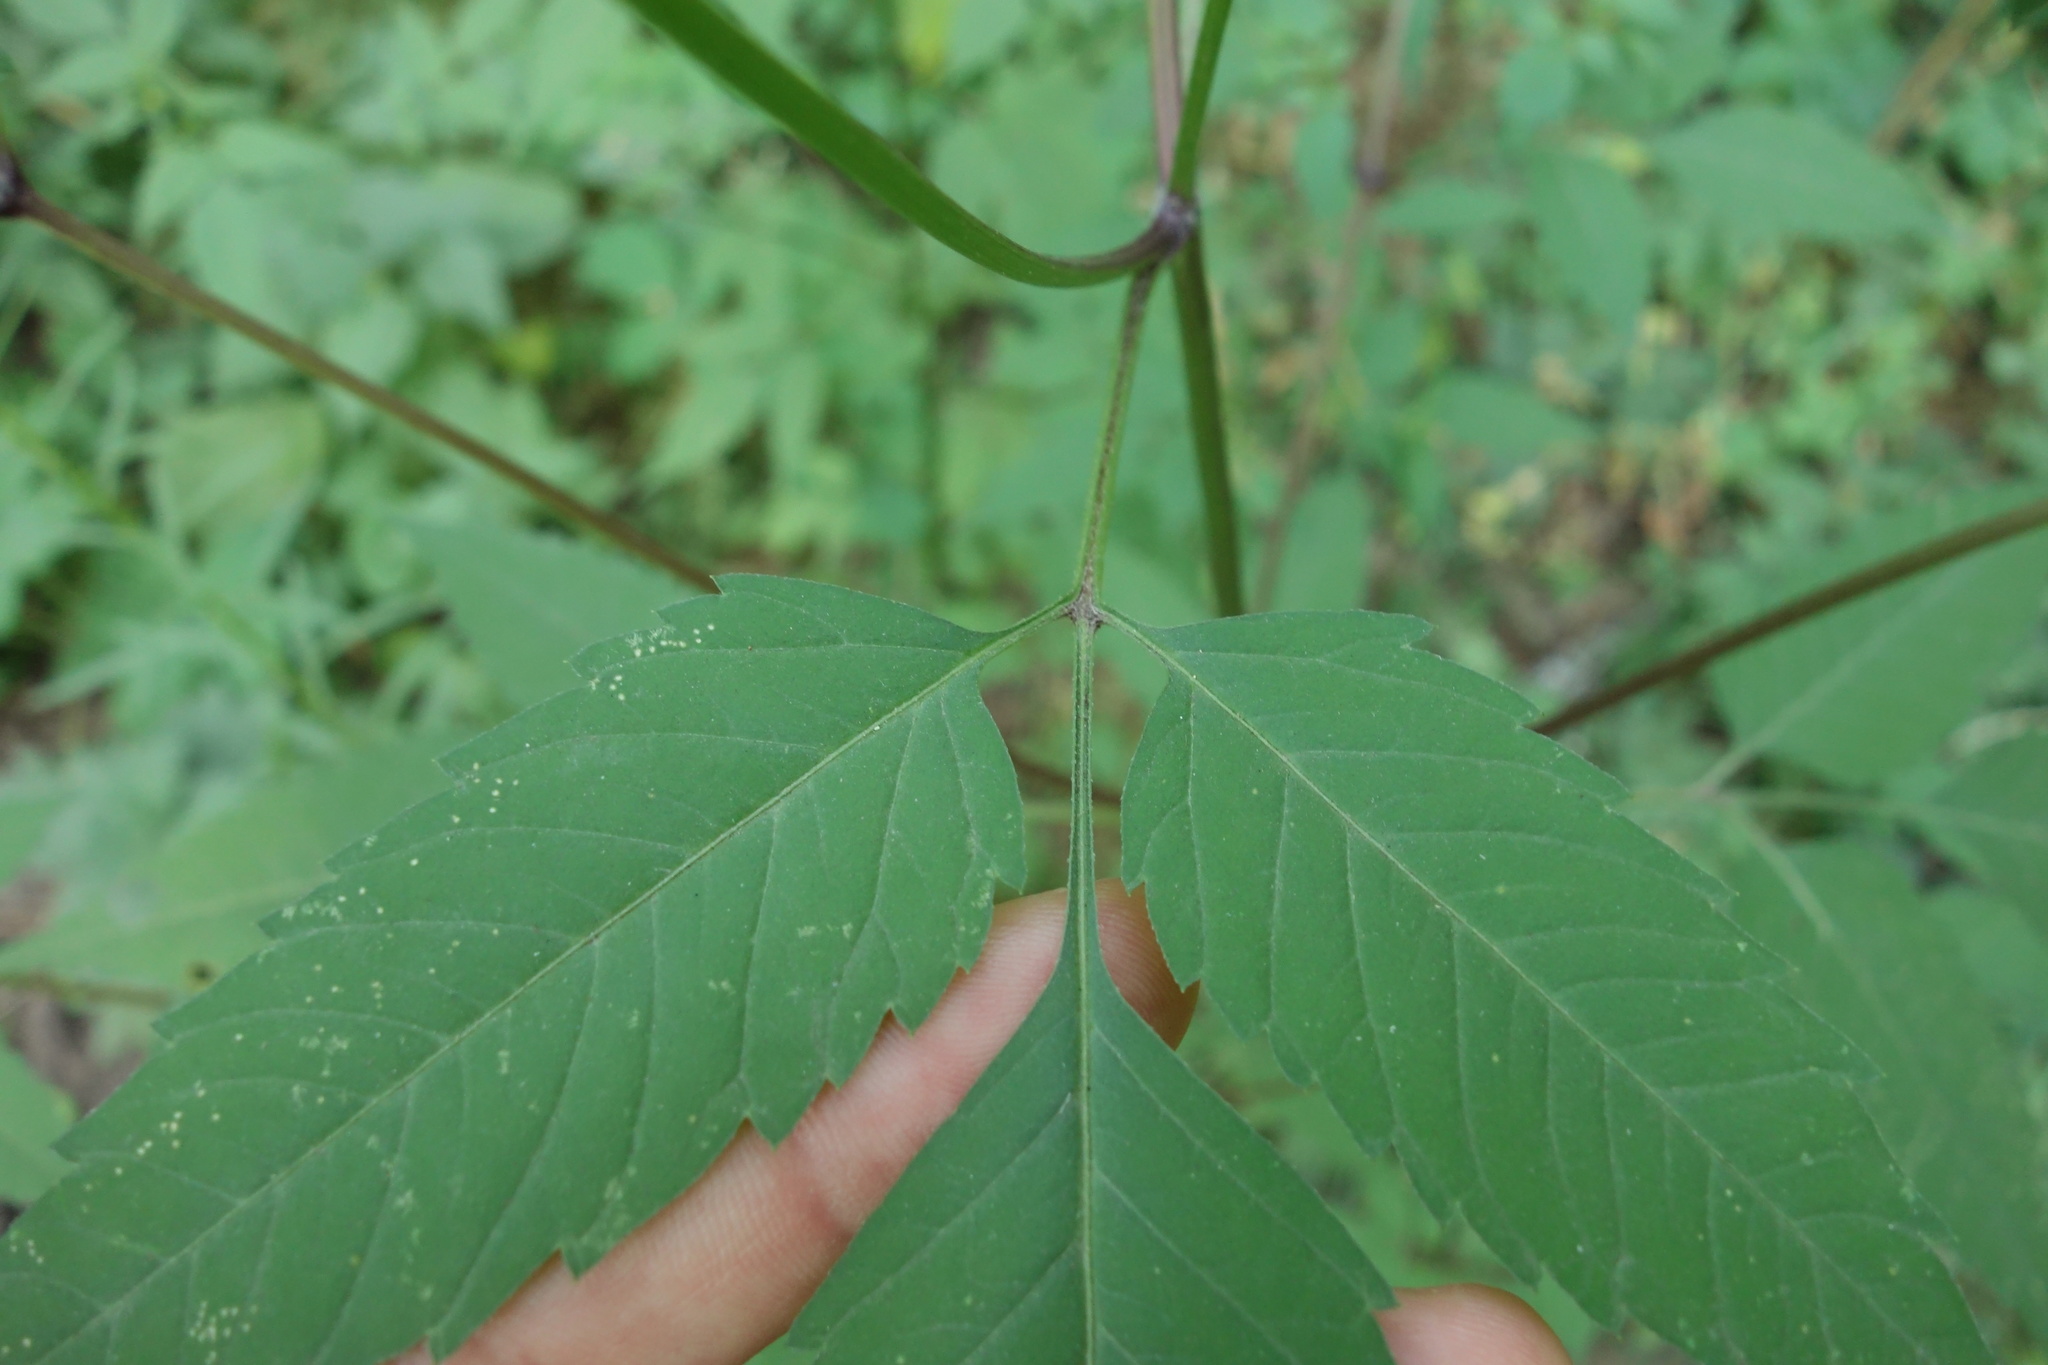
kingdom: Plantae
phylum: Tracheophyta
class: Magnoliopsida
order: Asterales
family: Asteraceae
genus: Bidens
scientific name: Bidens frondosa
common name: Beggarticks
